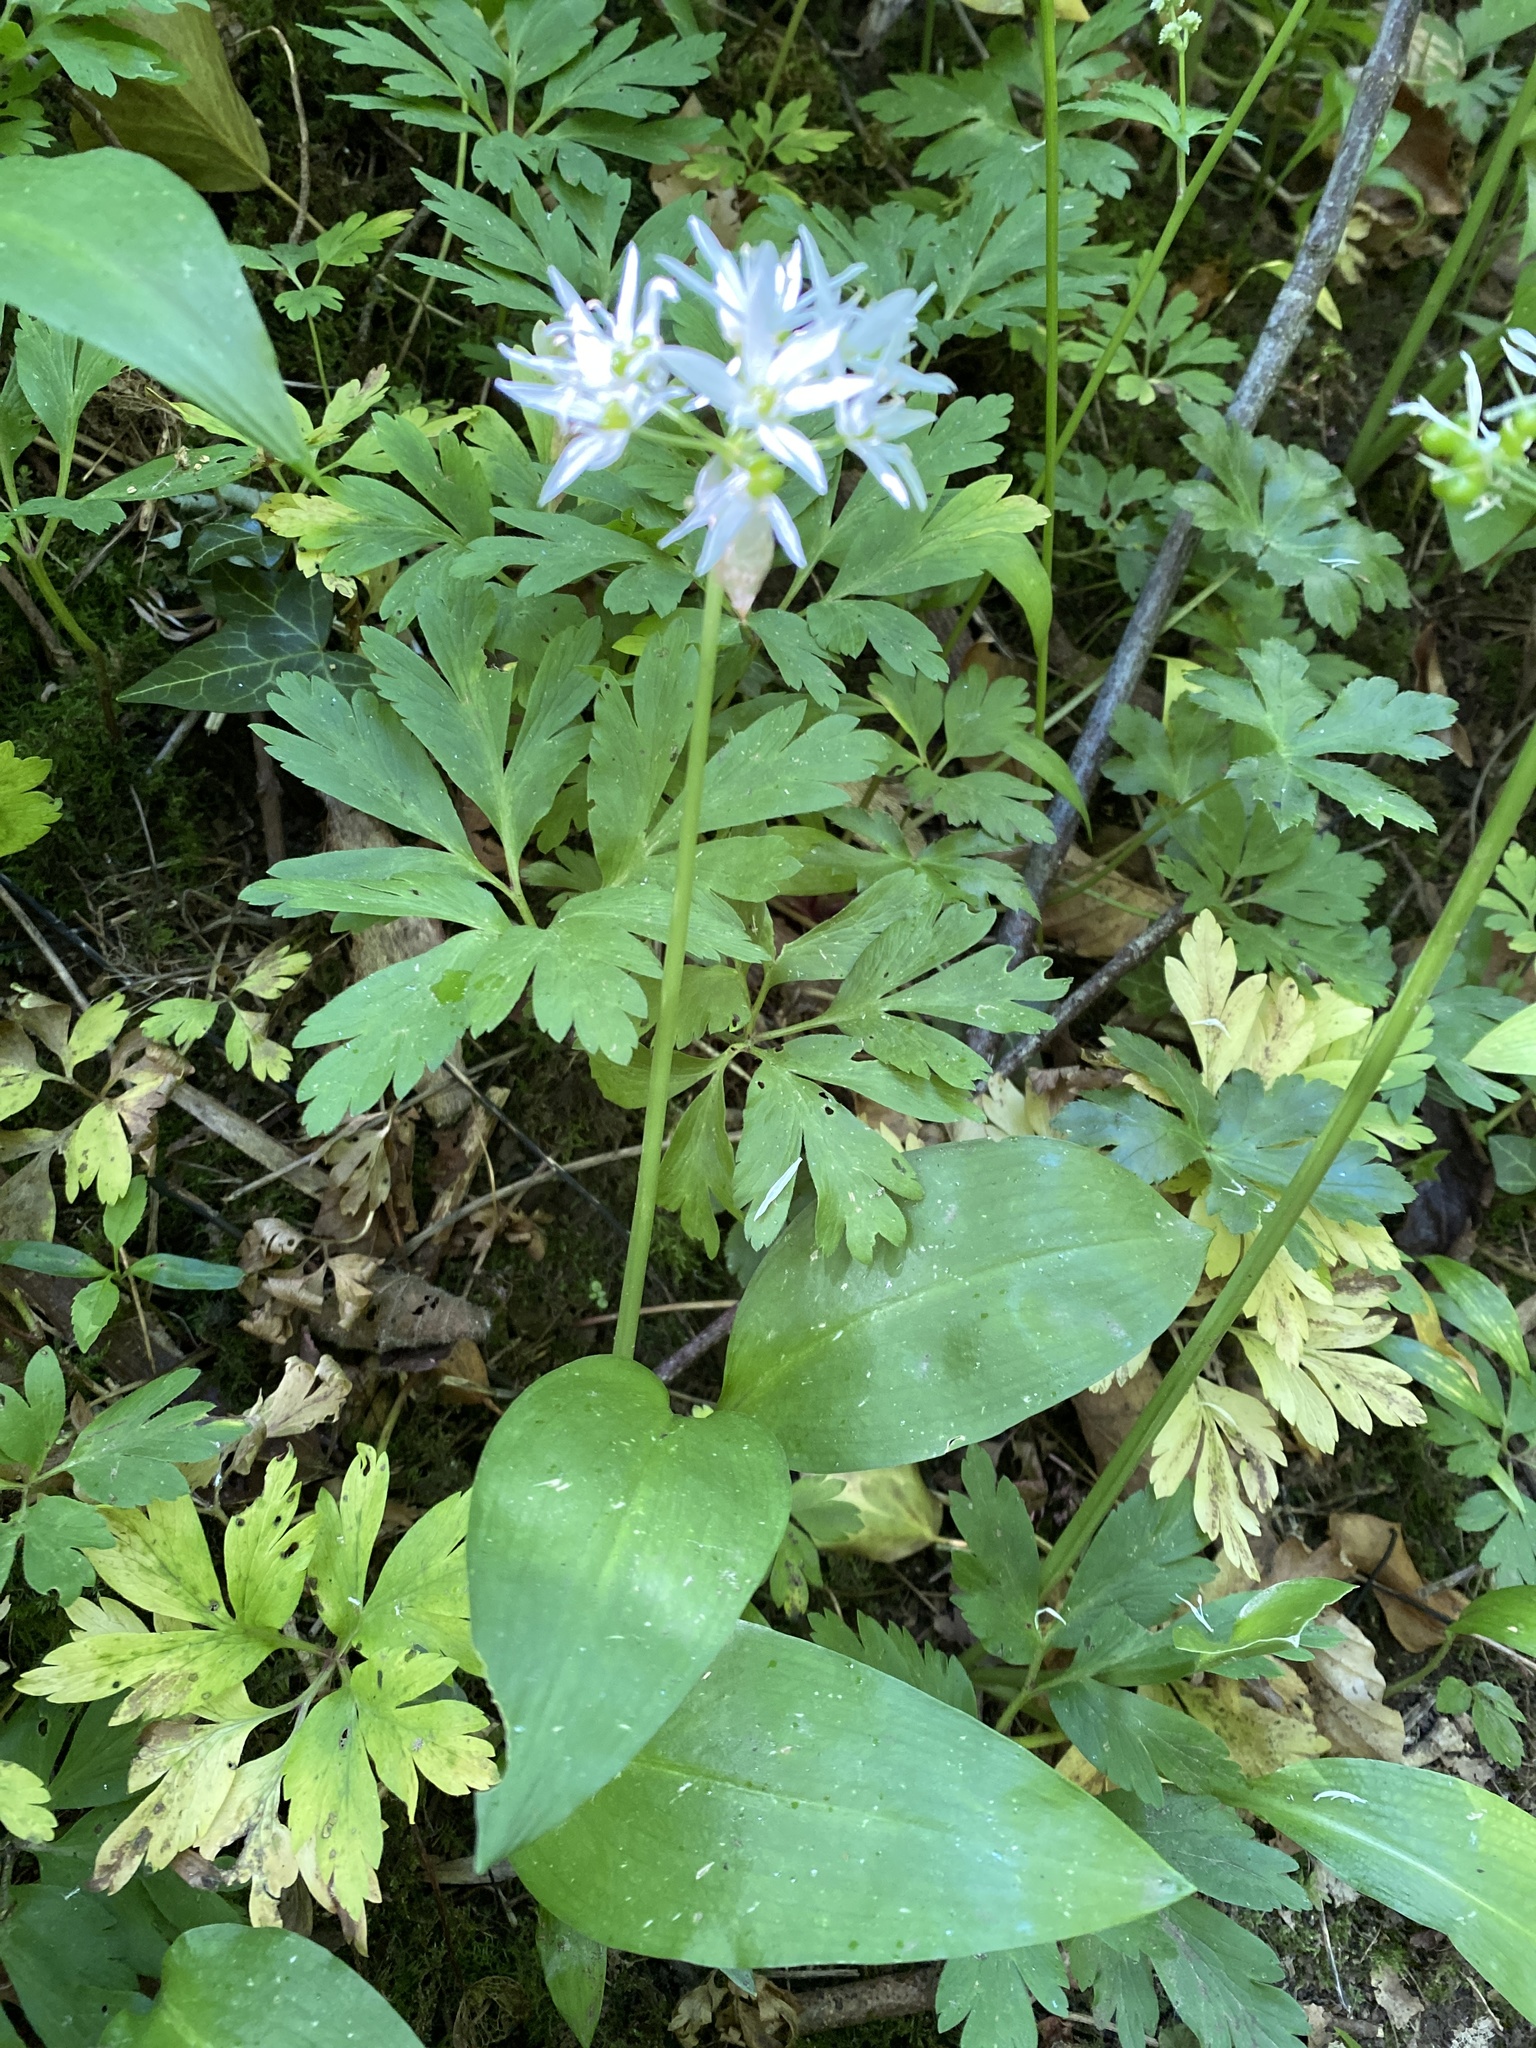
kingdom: Plantae
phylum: Tracheophyta
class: Liliopsida
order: Asparagales
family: Amaryllidaceae
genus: Allium
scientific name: Allium ursinum
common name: Ramsons
